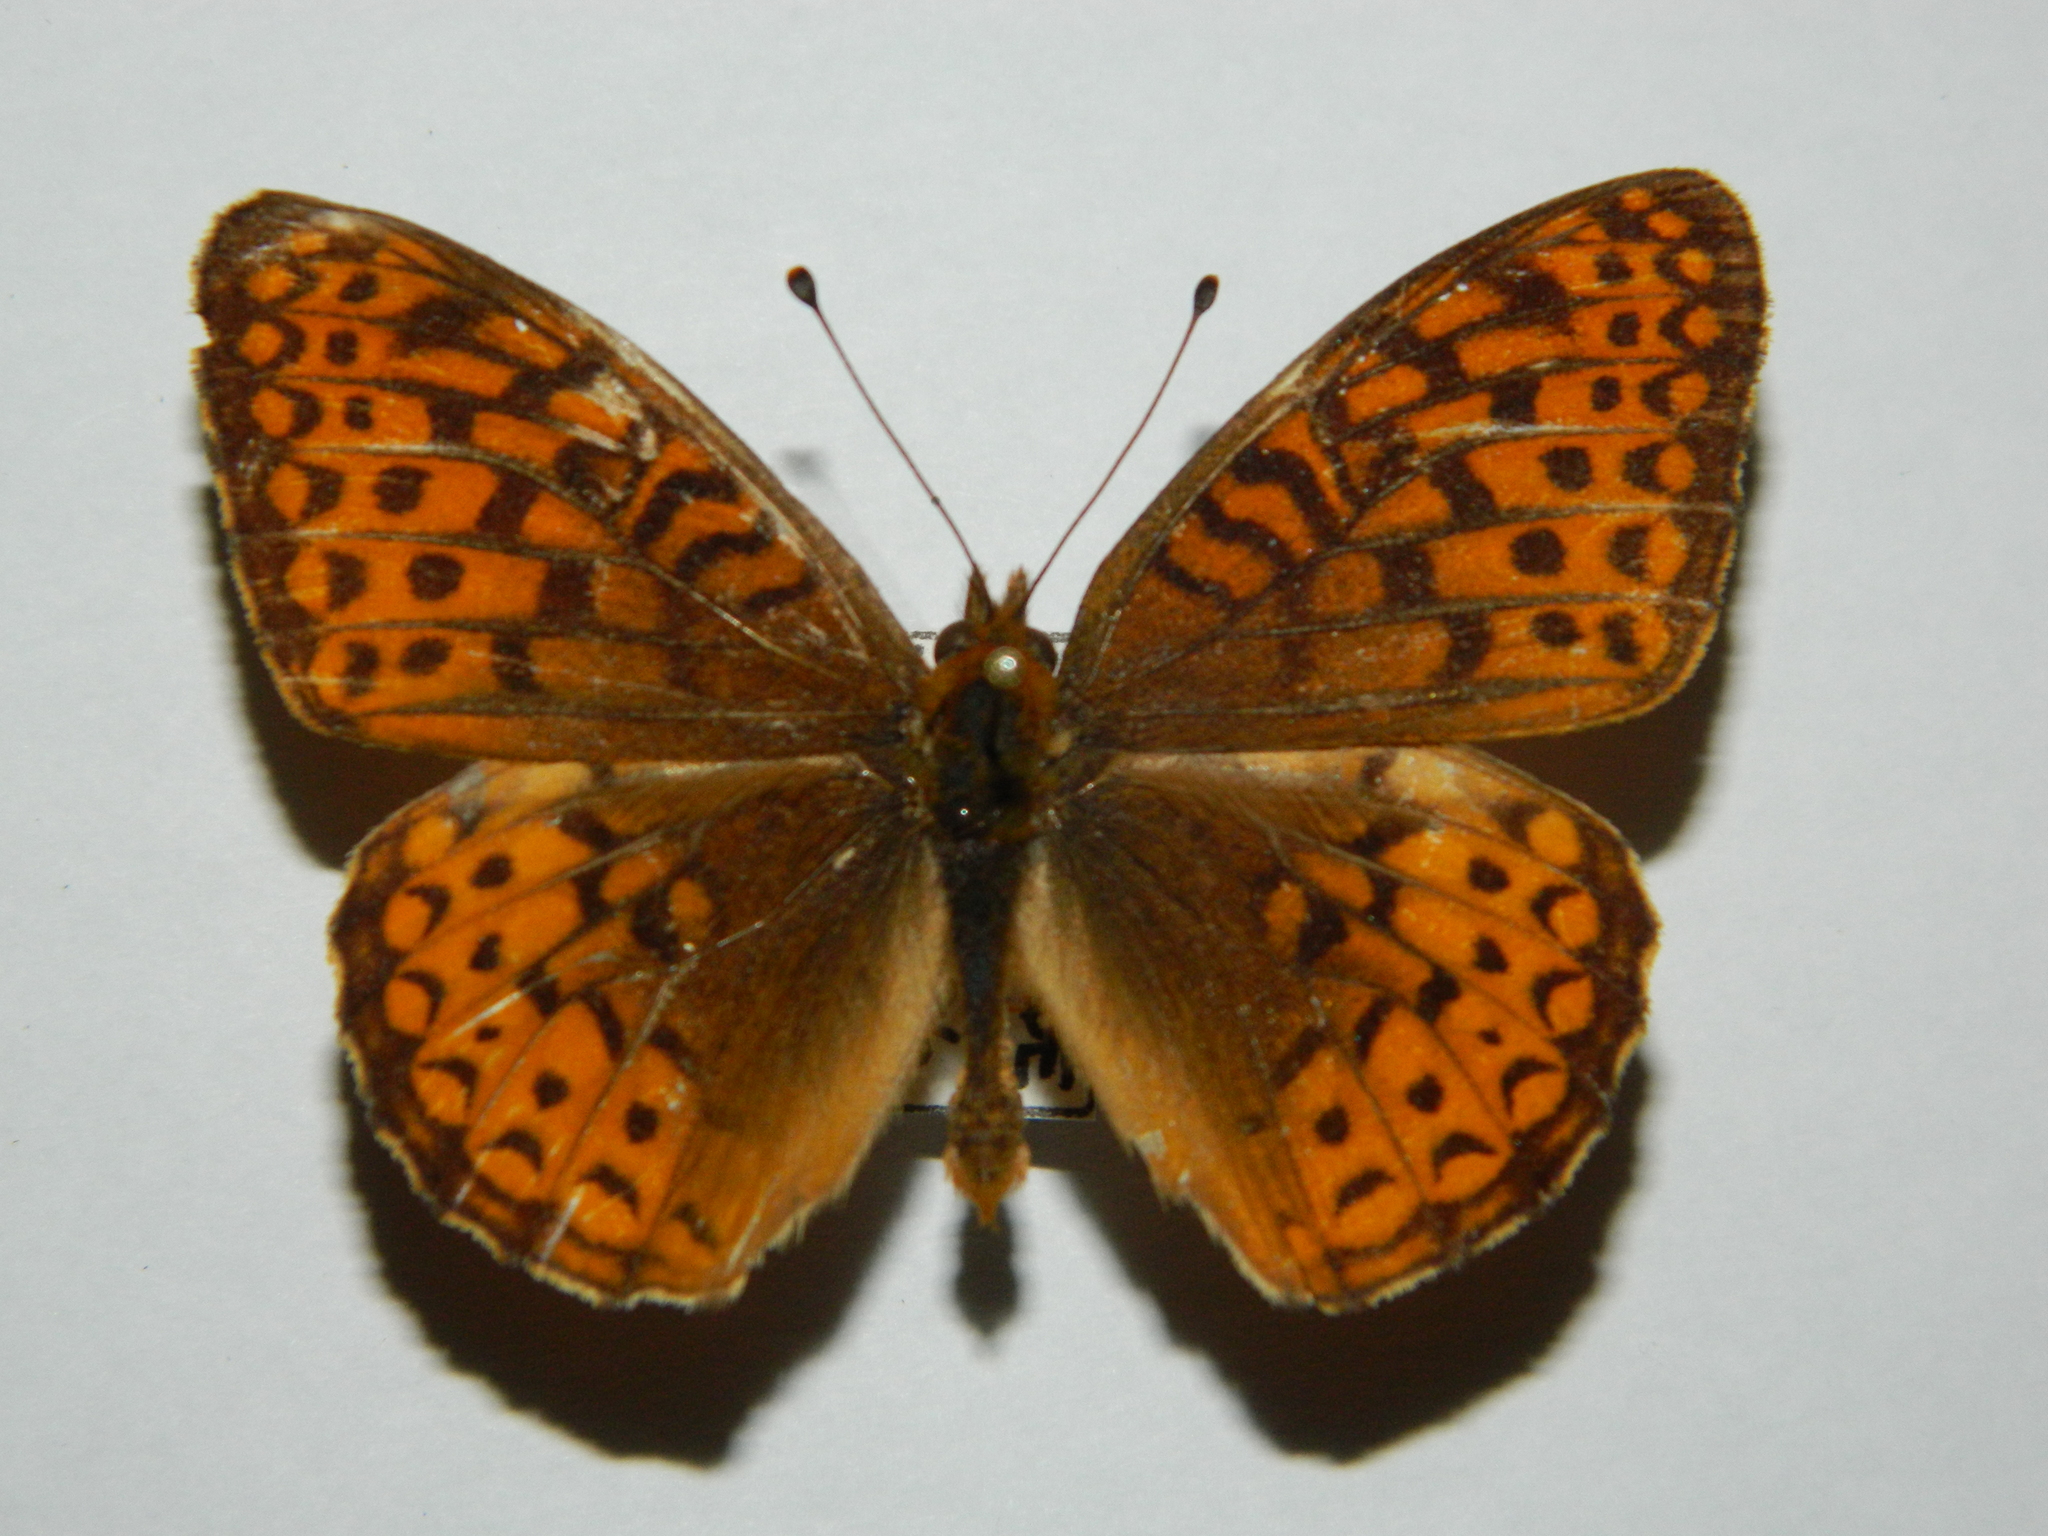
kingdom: Animalia
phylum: Arthropoda
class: Insecta
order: Lepidoptera
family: Nymphalidae
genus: Speyeria
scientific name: Speyeria atlantis
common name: Atlantis fritillary
